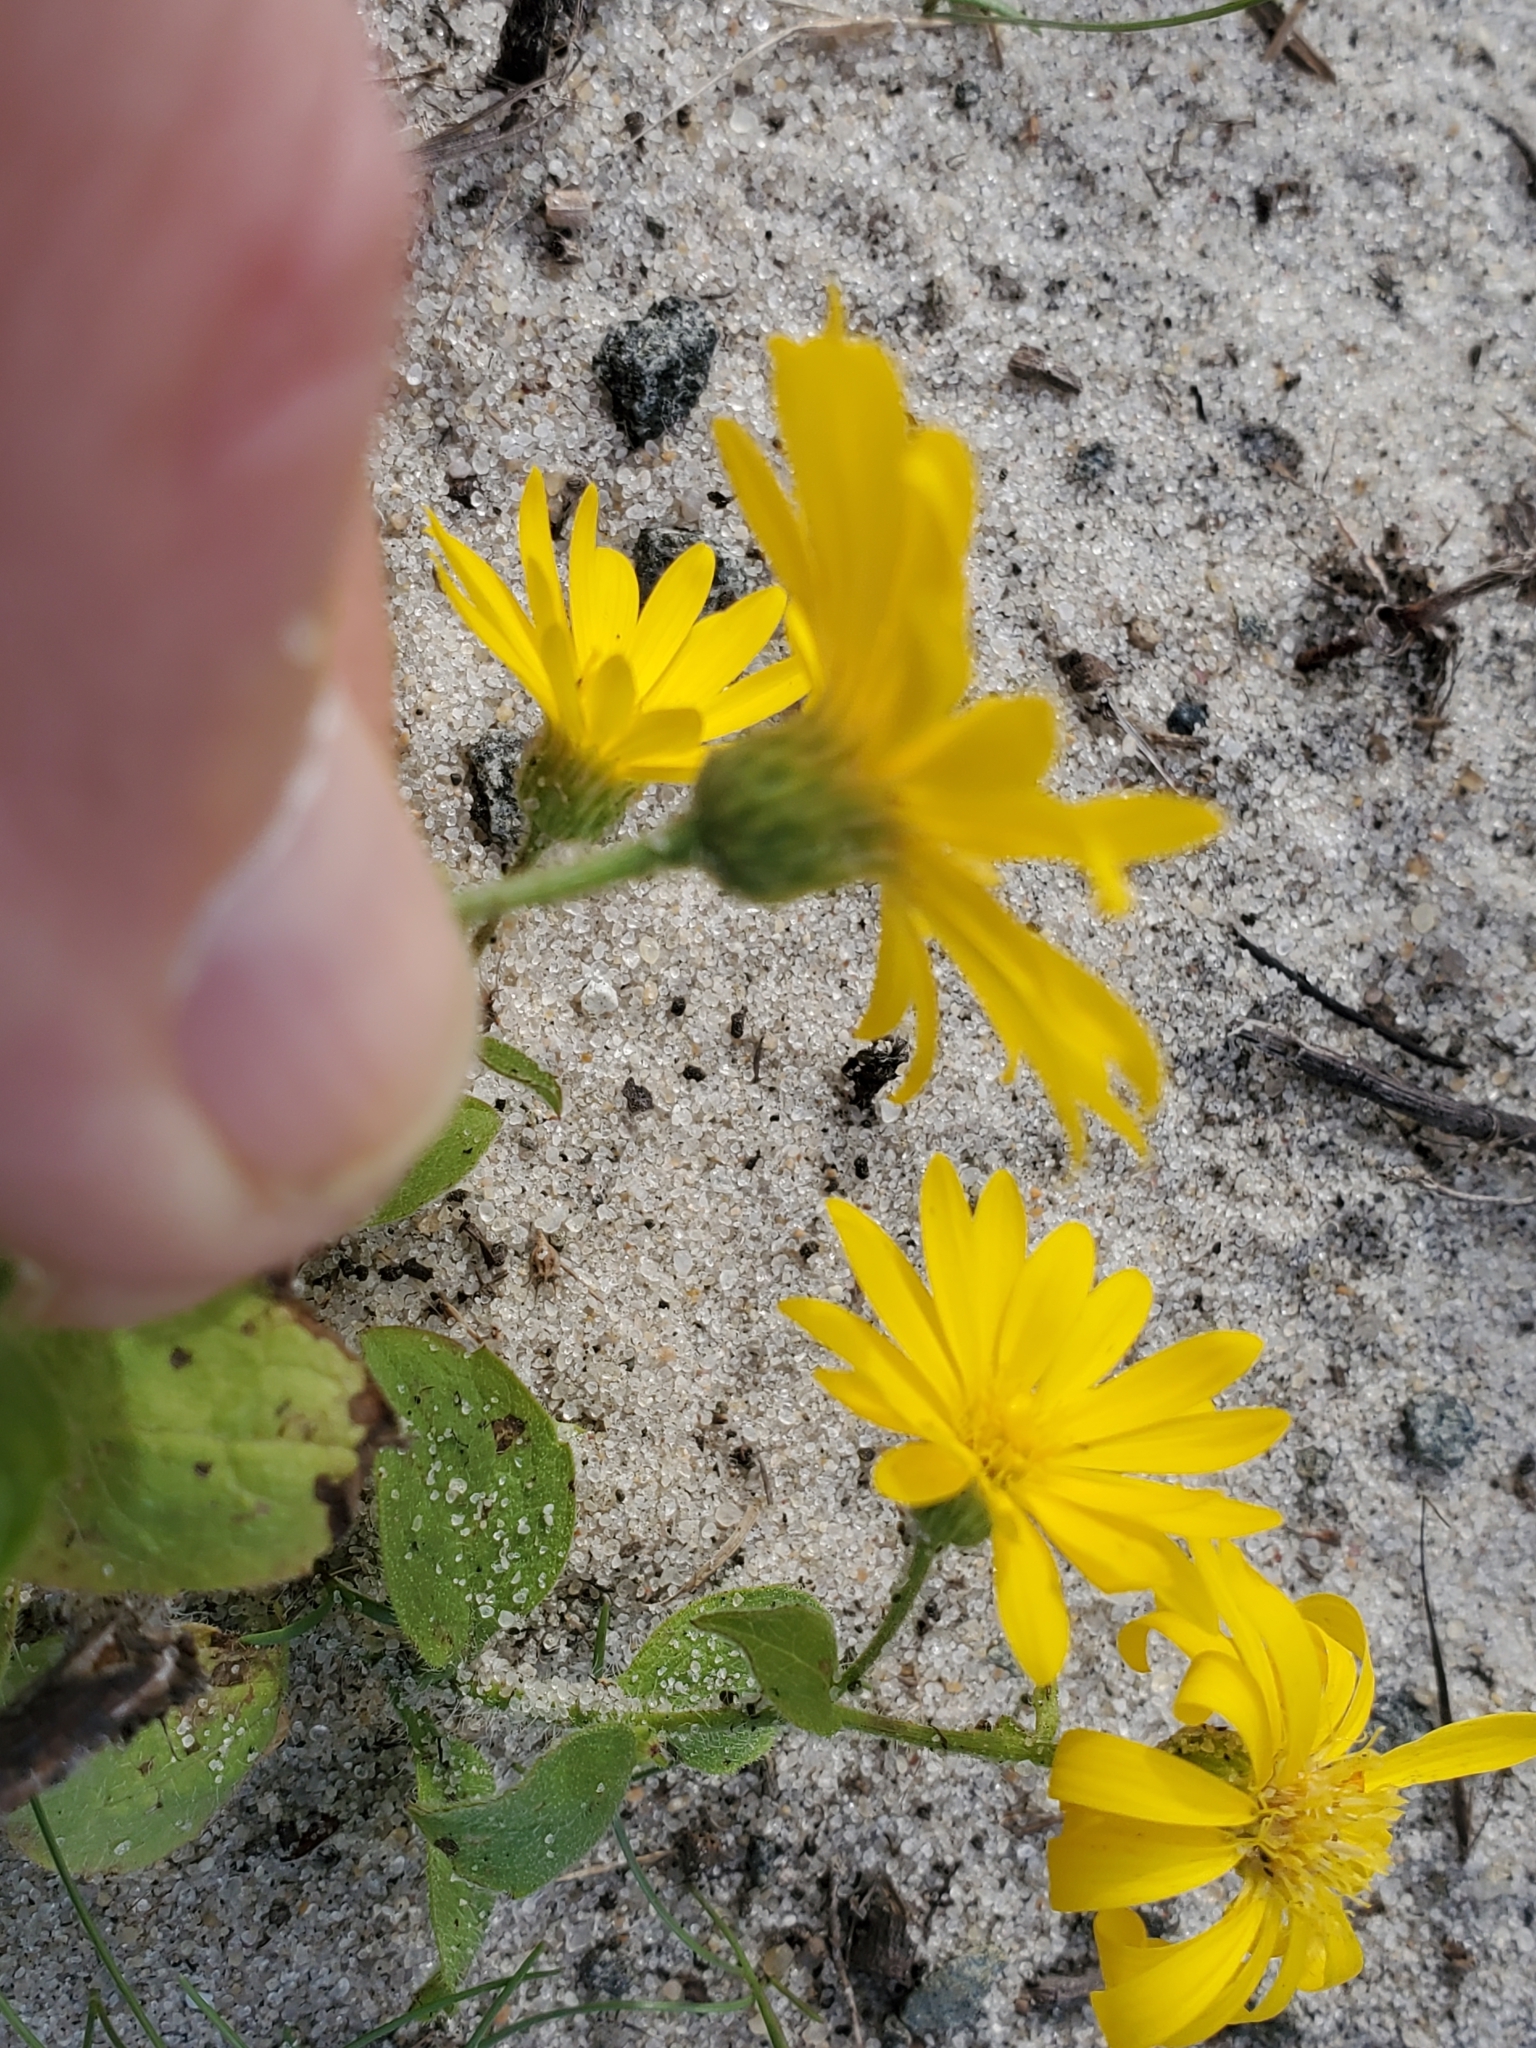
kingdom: Plantae
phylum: Tracheophyta
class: Magnoliopsida
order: Asterales
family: Asteraceae
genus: Heterotheca
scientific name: Heterotheca subaxillaris
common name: Camphorweed
